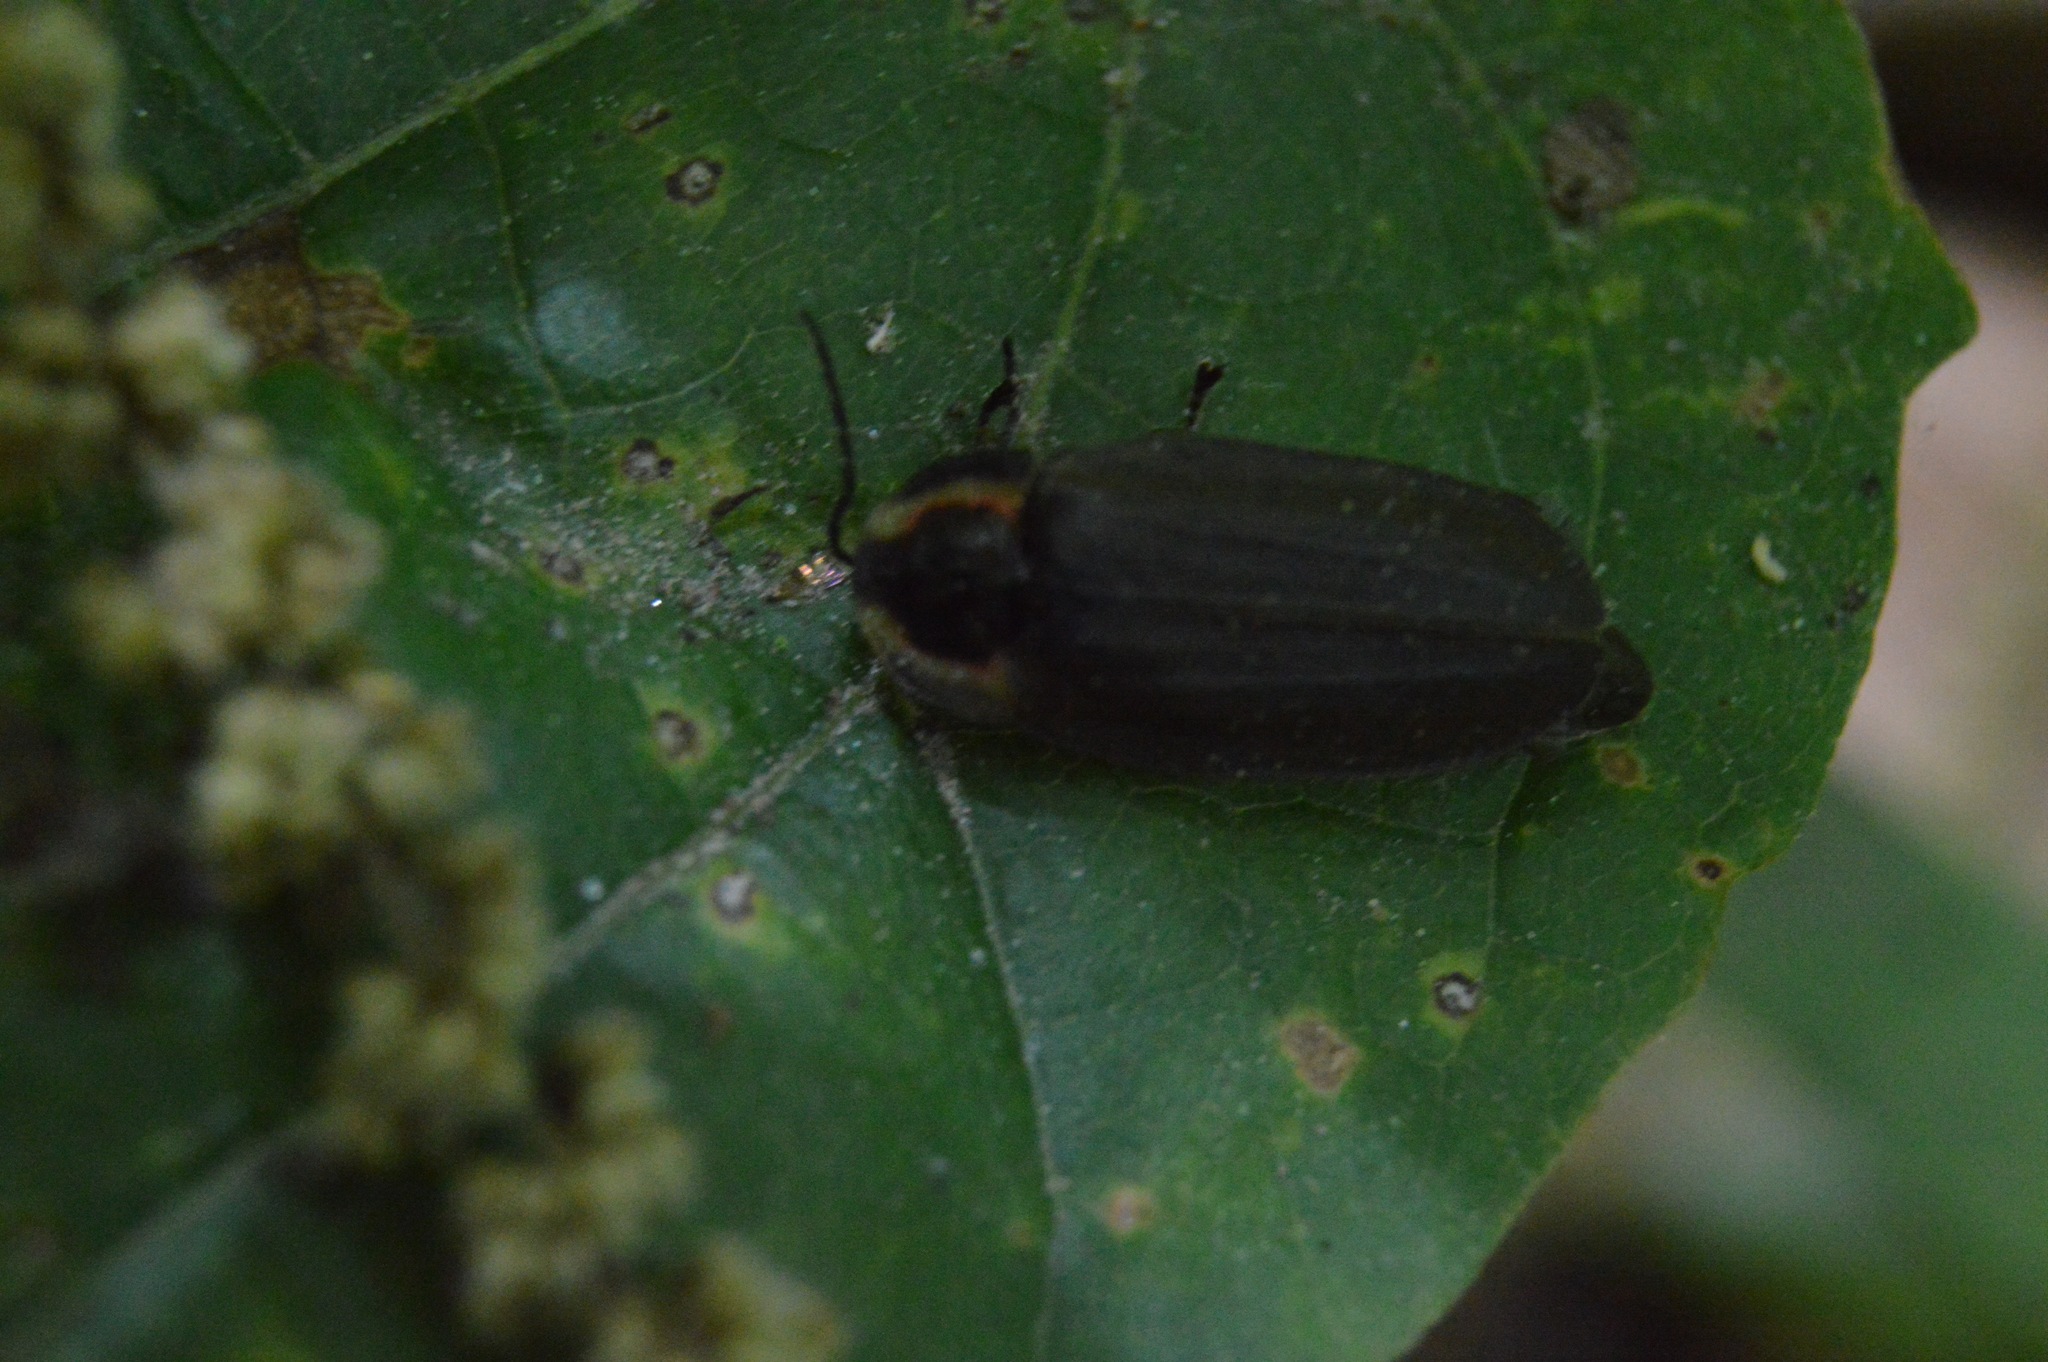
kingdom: Animalia
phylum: Arthropoda
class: Insecta
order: Coleoptera
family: Lampyridae
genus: Photinus
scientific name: Photinus corrusca
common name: Winter firefly
